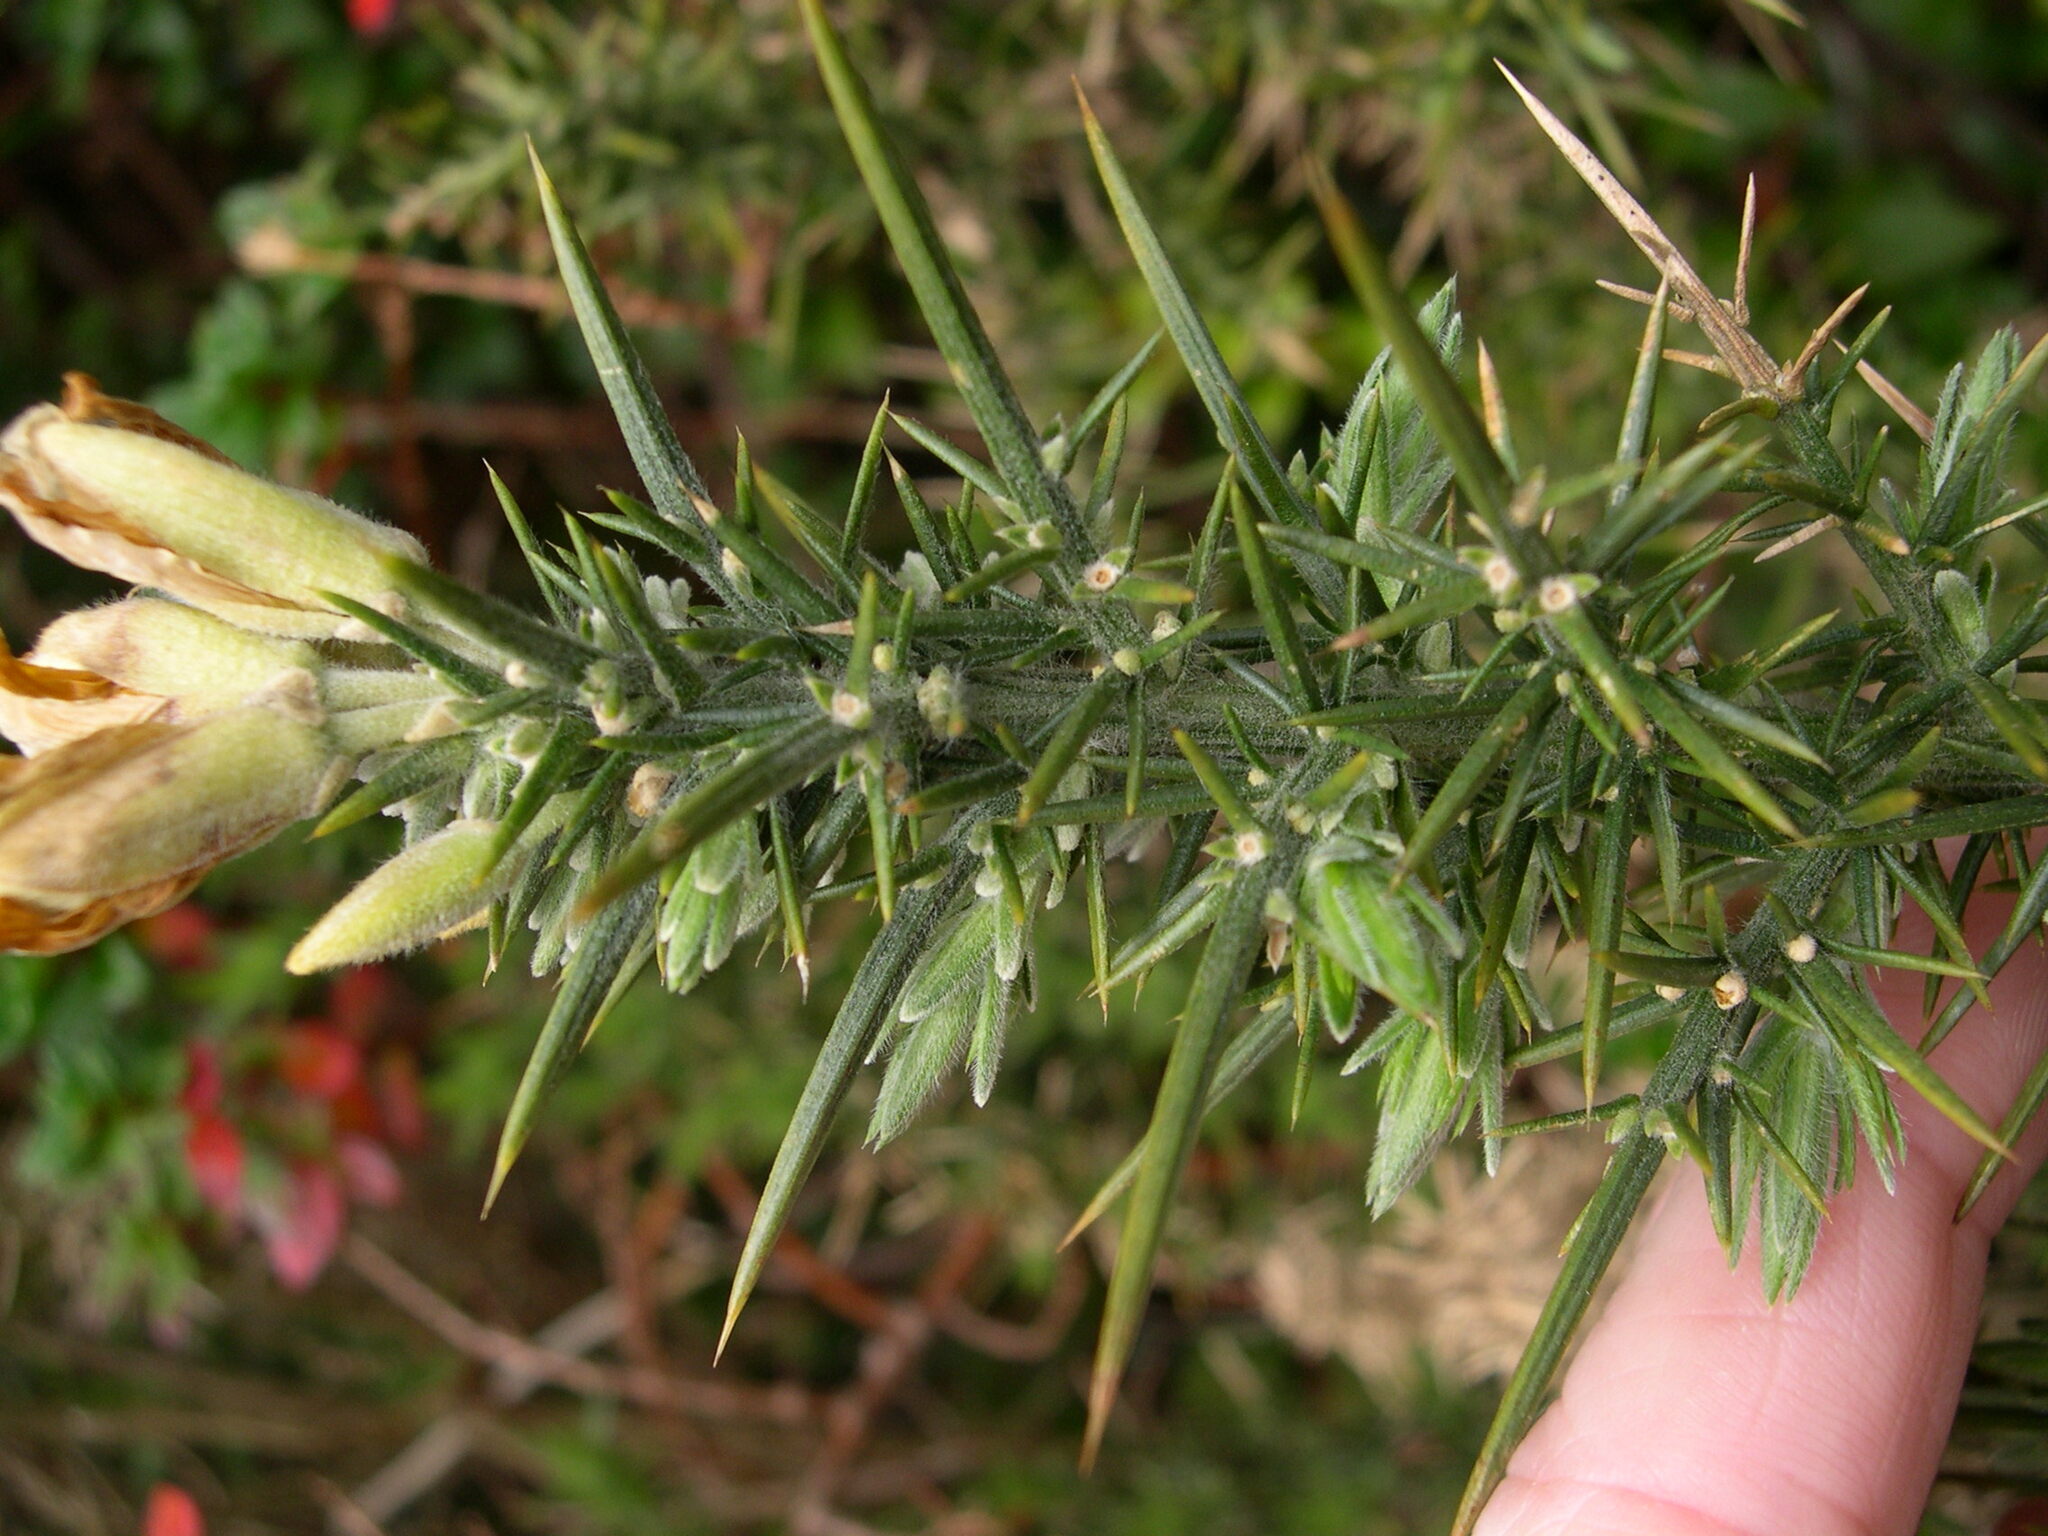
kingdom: Plantae
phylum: Tracheophyta
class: Magnoliopsida
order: Fabales
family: Fabaceae
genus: Ulex
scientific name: Ulex europaeus
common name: Common gorse
